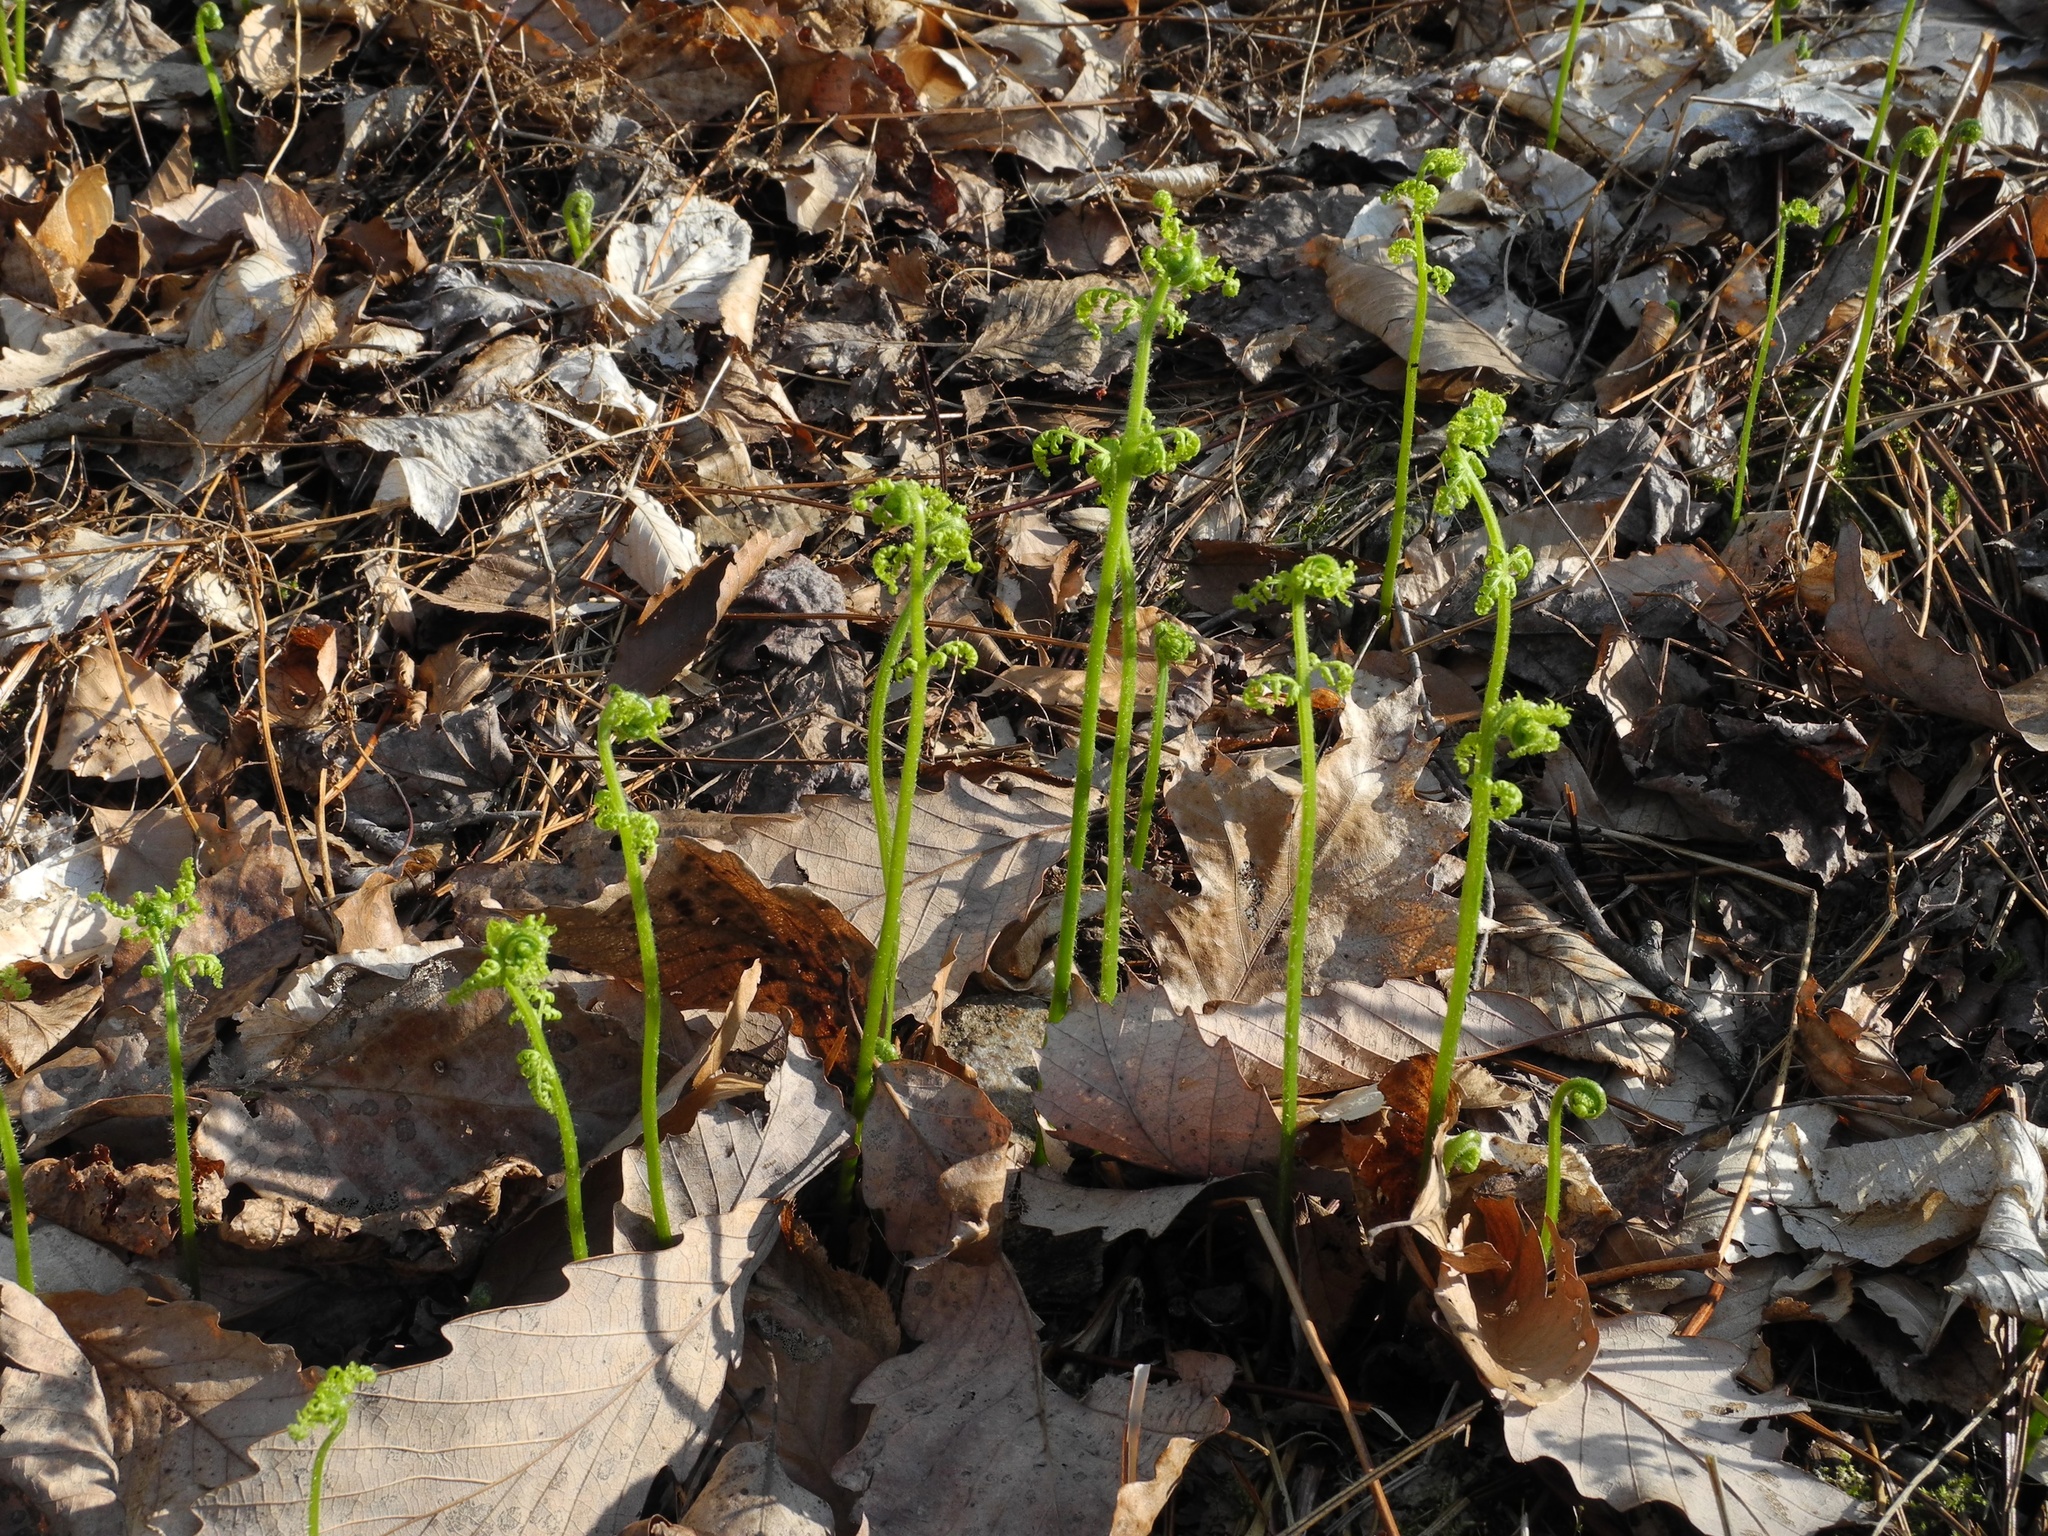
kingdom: Plantae
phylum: Tracheophyta
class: Polypodiopsida
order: Polypodiales
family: Dennstaedtiaceae
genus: Sitobolium
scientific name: Sitobolium punctilobum
